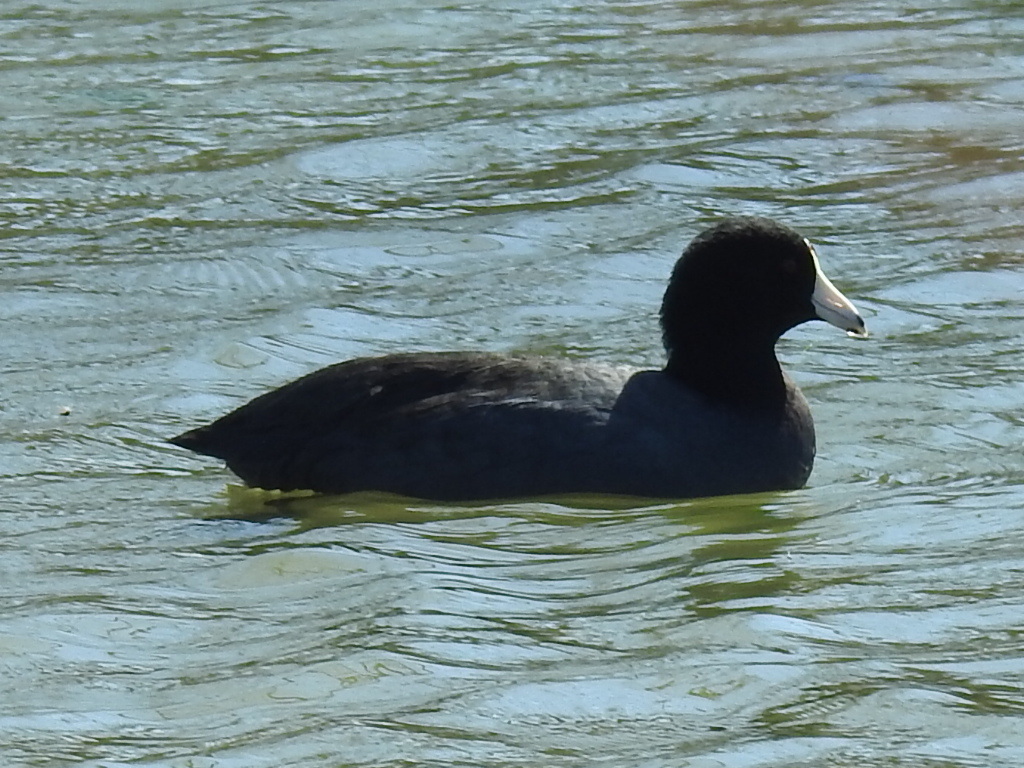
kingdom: Animalia
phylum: Chordata
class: Aves
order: Gruiformes
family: Rallidae
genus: Fulica
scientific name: Fulica americana
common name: American coot
